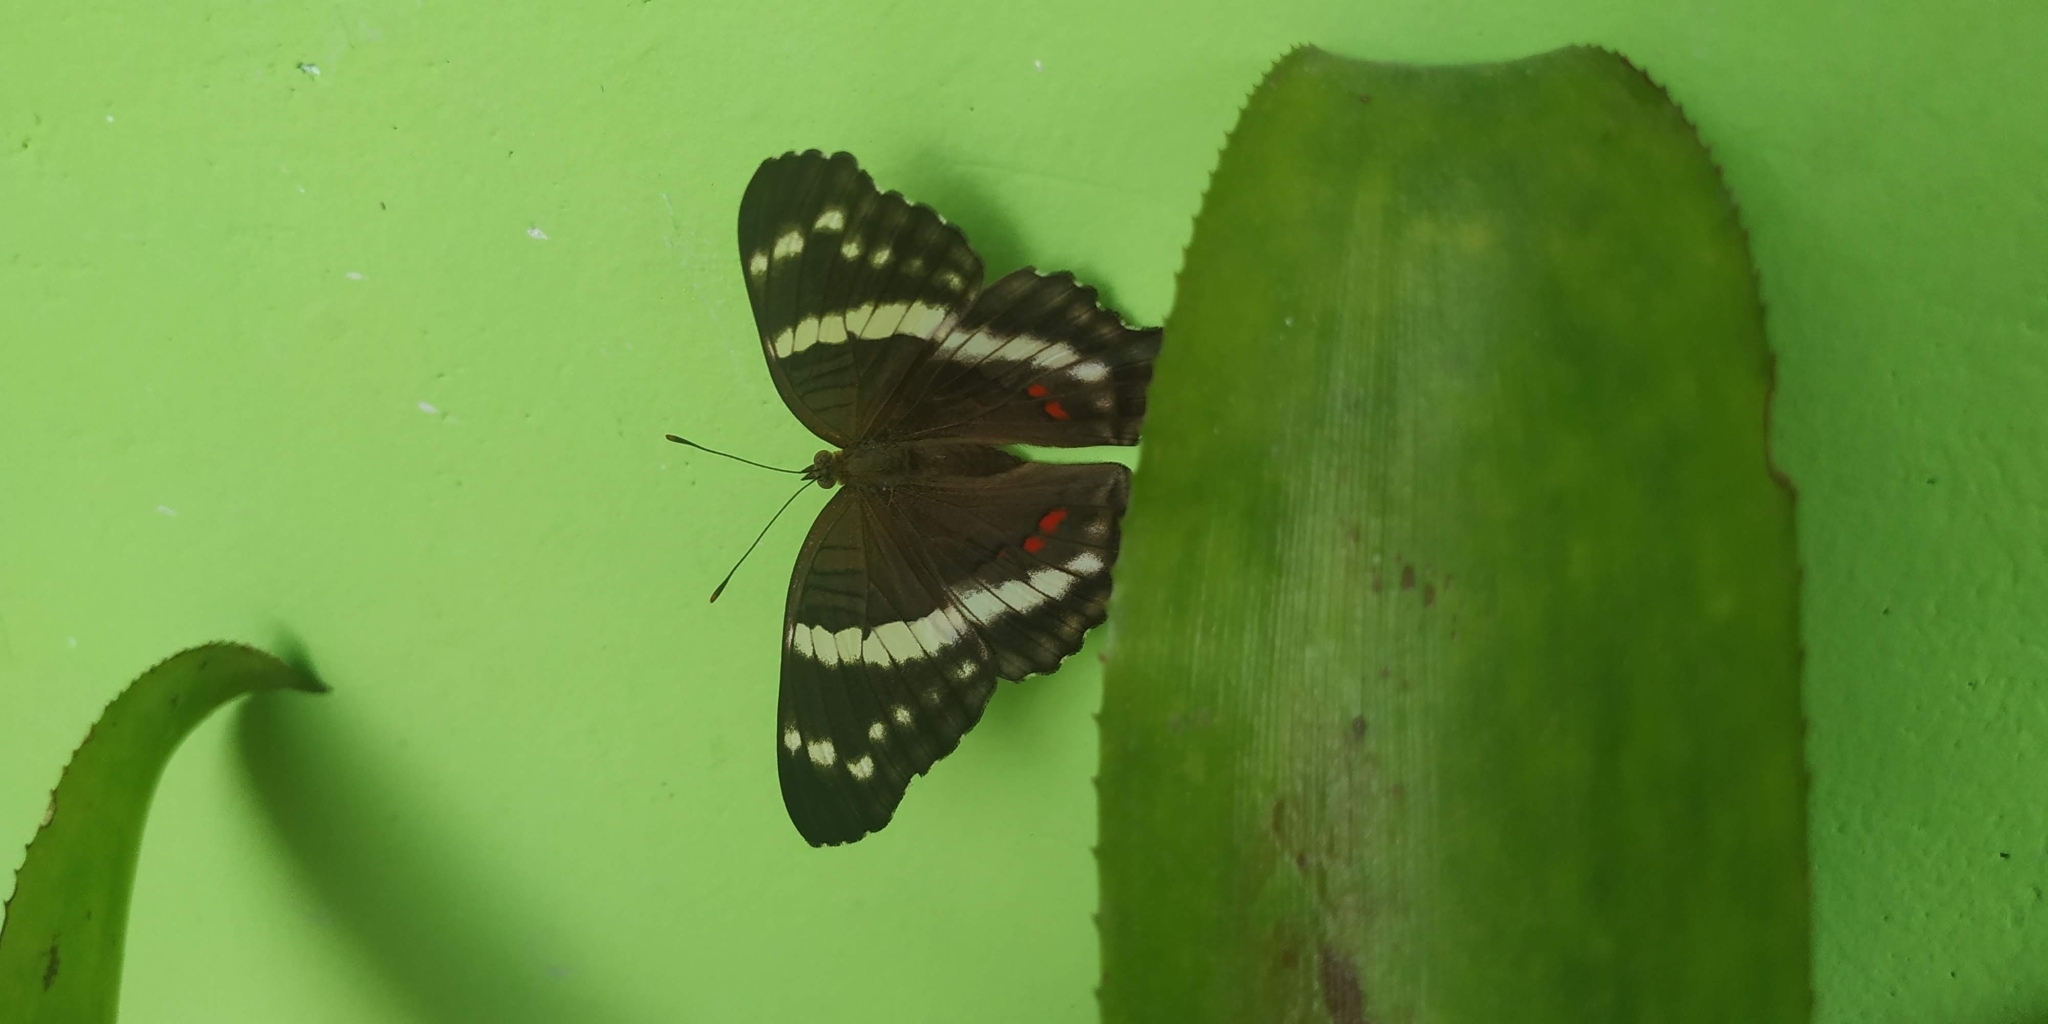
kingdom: Animalia
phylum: Arthropoda
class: Insecta
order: Lepidoptera
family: Nymphalidae
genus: Anartia
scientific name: Anartia fatima
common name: Banded peacock
